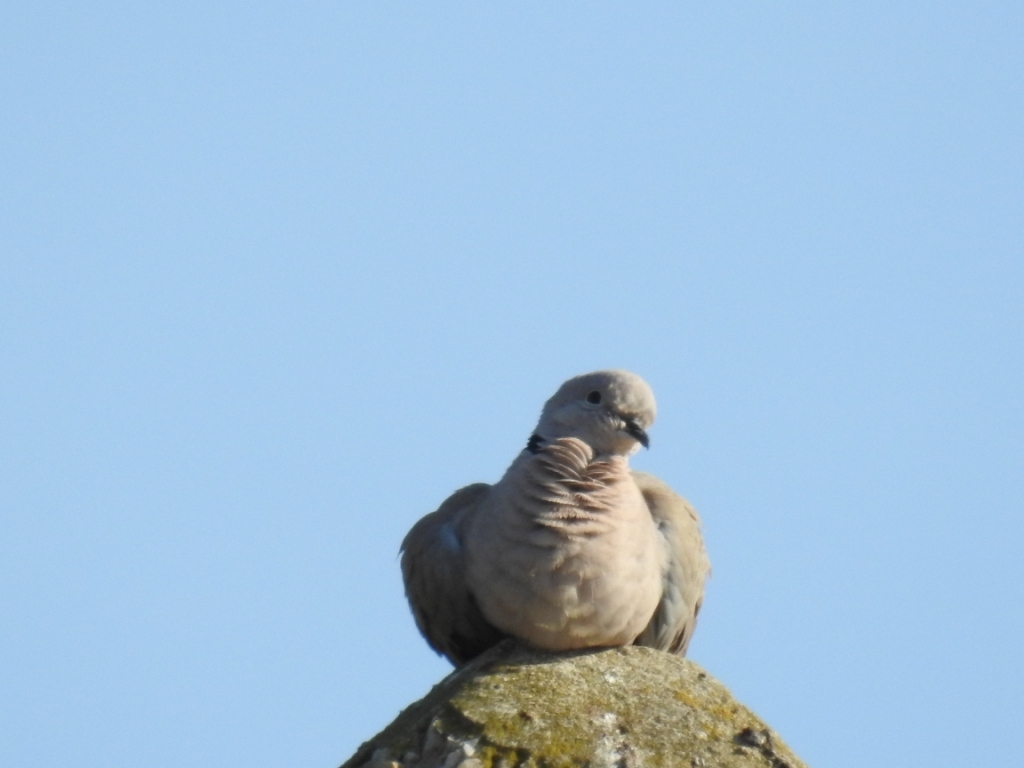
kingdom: Animalia
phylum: Chordata
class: Aves
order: Columbiformes
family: Columbidae
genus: Streptopelia
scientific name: Streptopelia decaocto
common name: Eurasian collared dove
